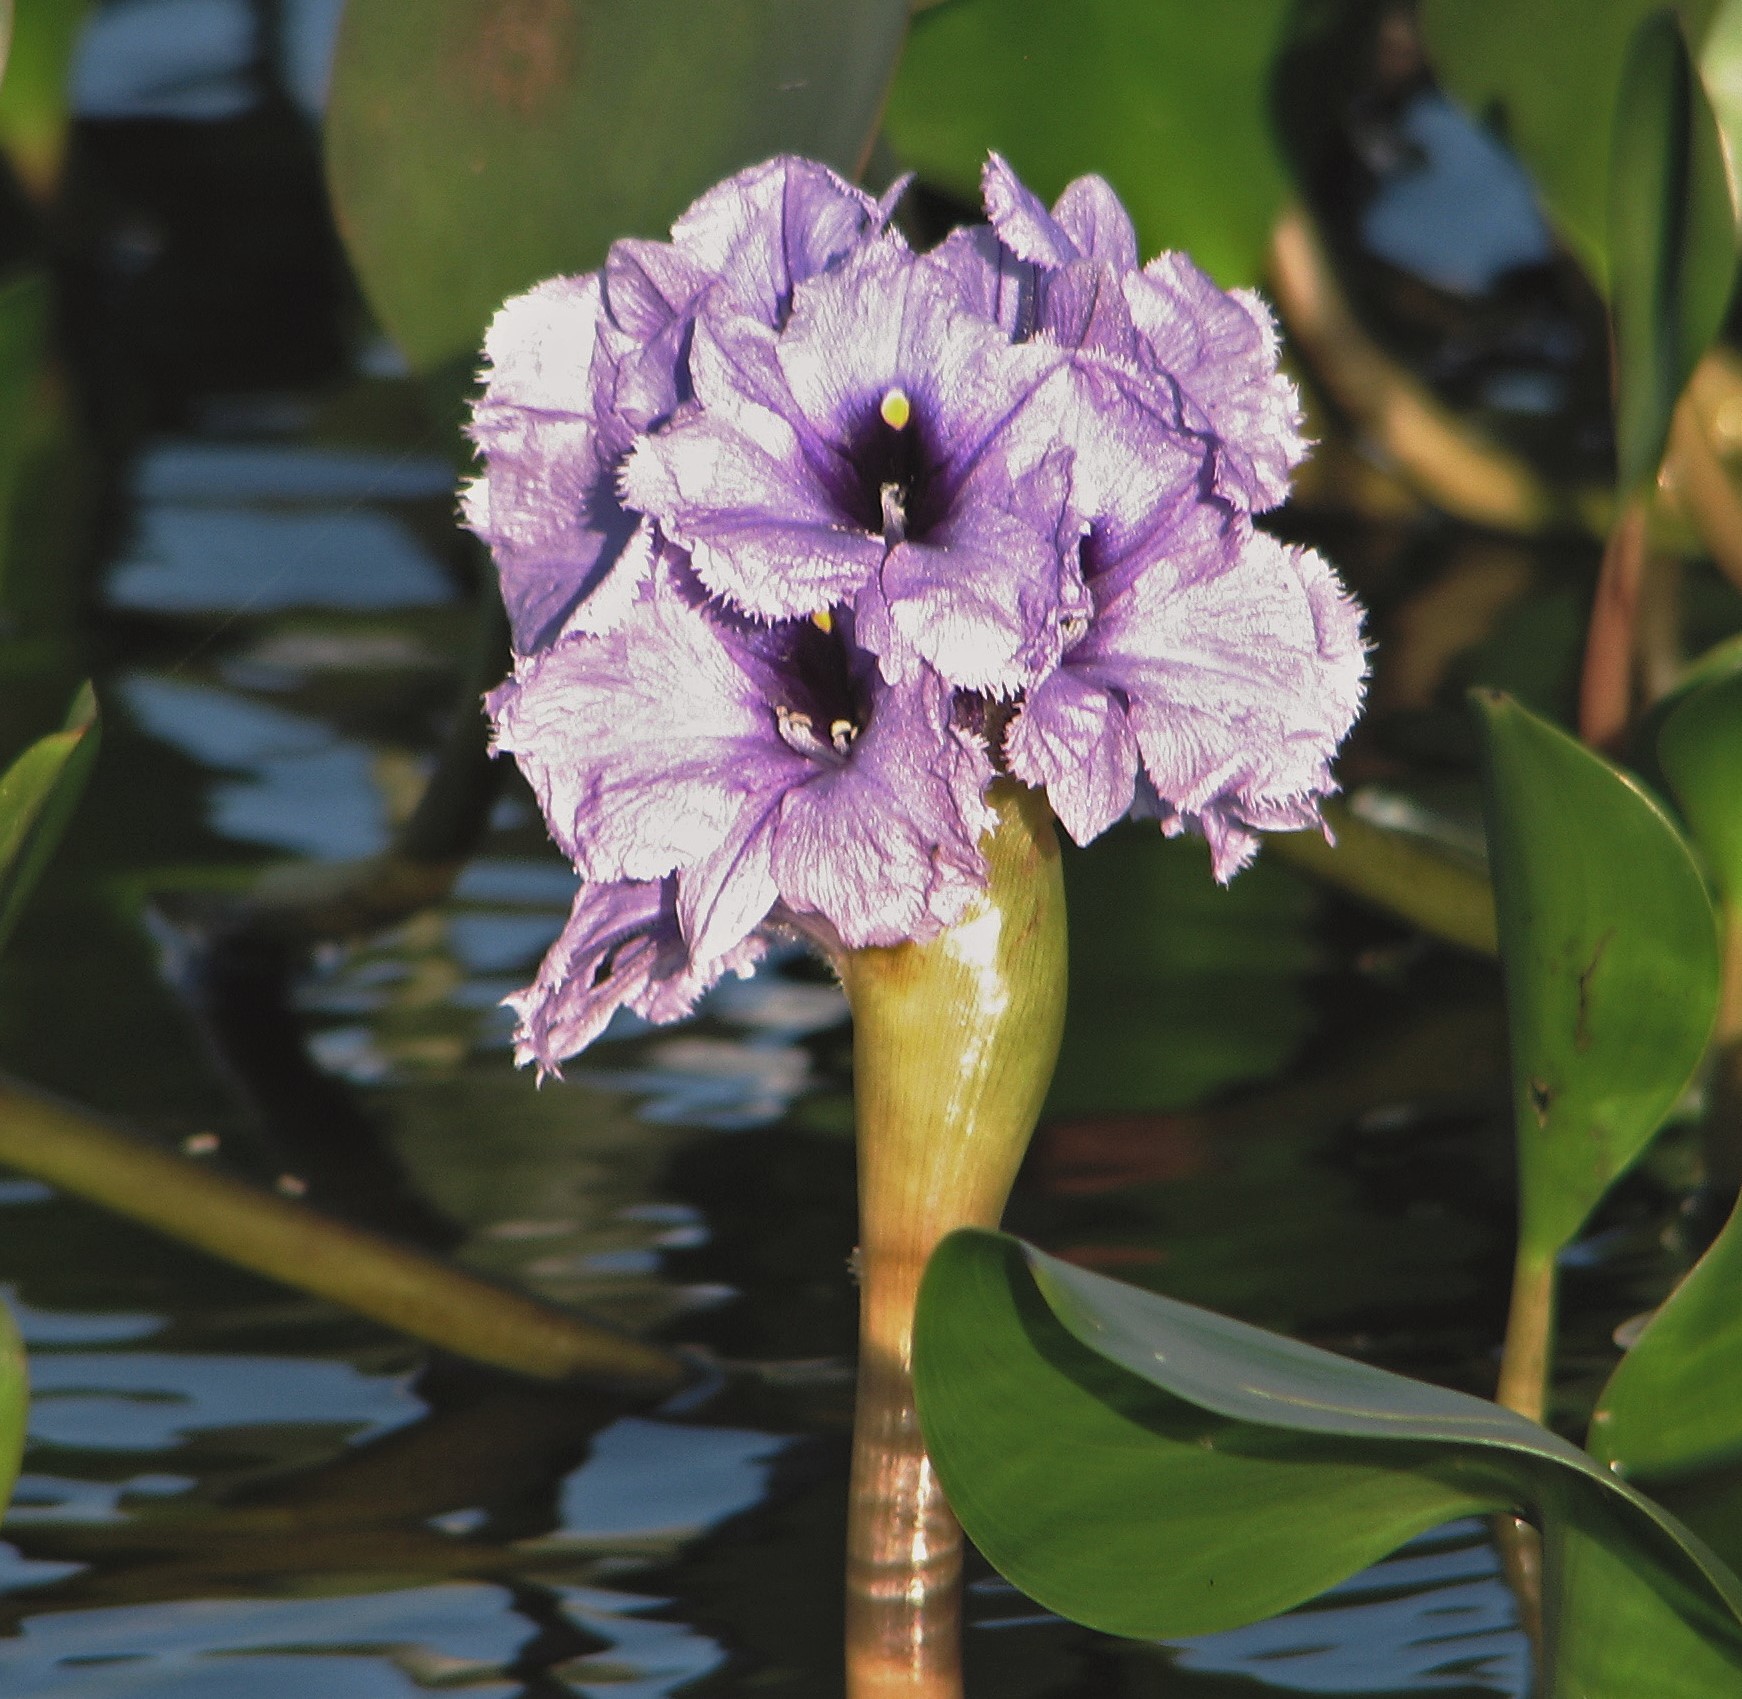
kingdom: Plantae
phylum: Tracheophyta
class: Liliopsida
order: Commelinales
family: Pontederiaceae
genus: Pontederia
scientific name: Pontederia azurea
